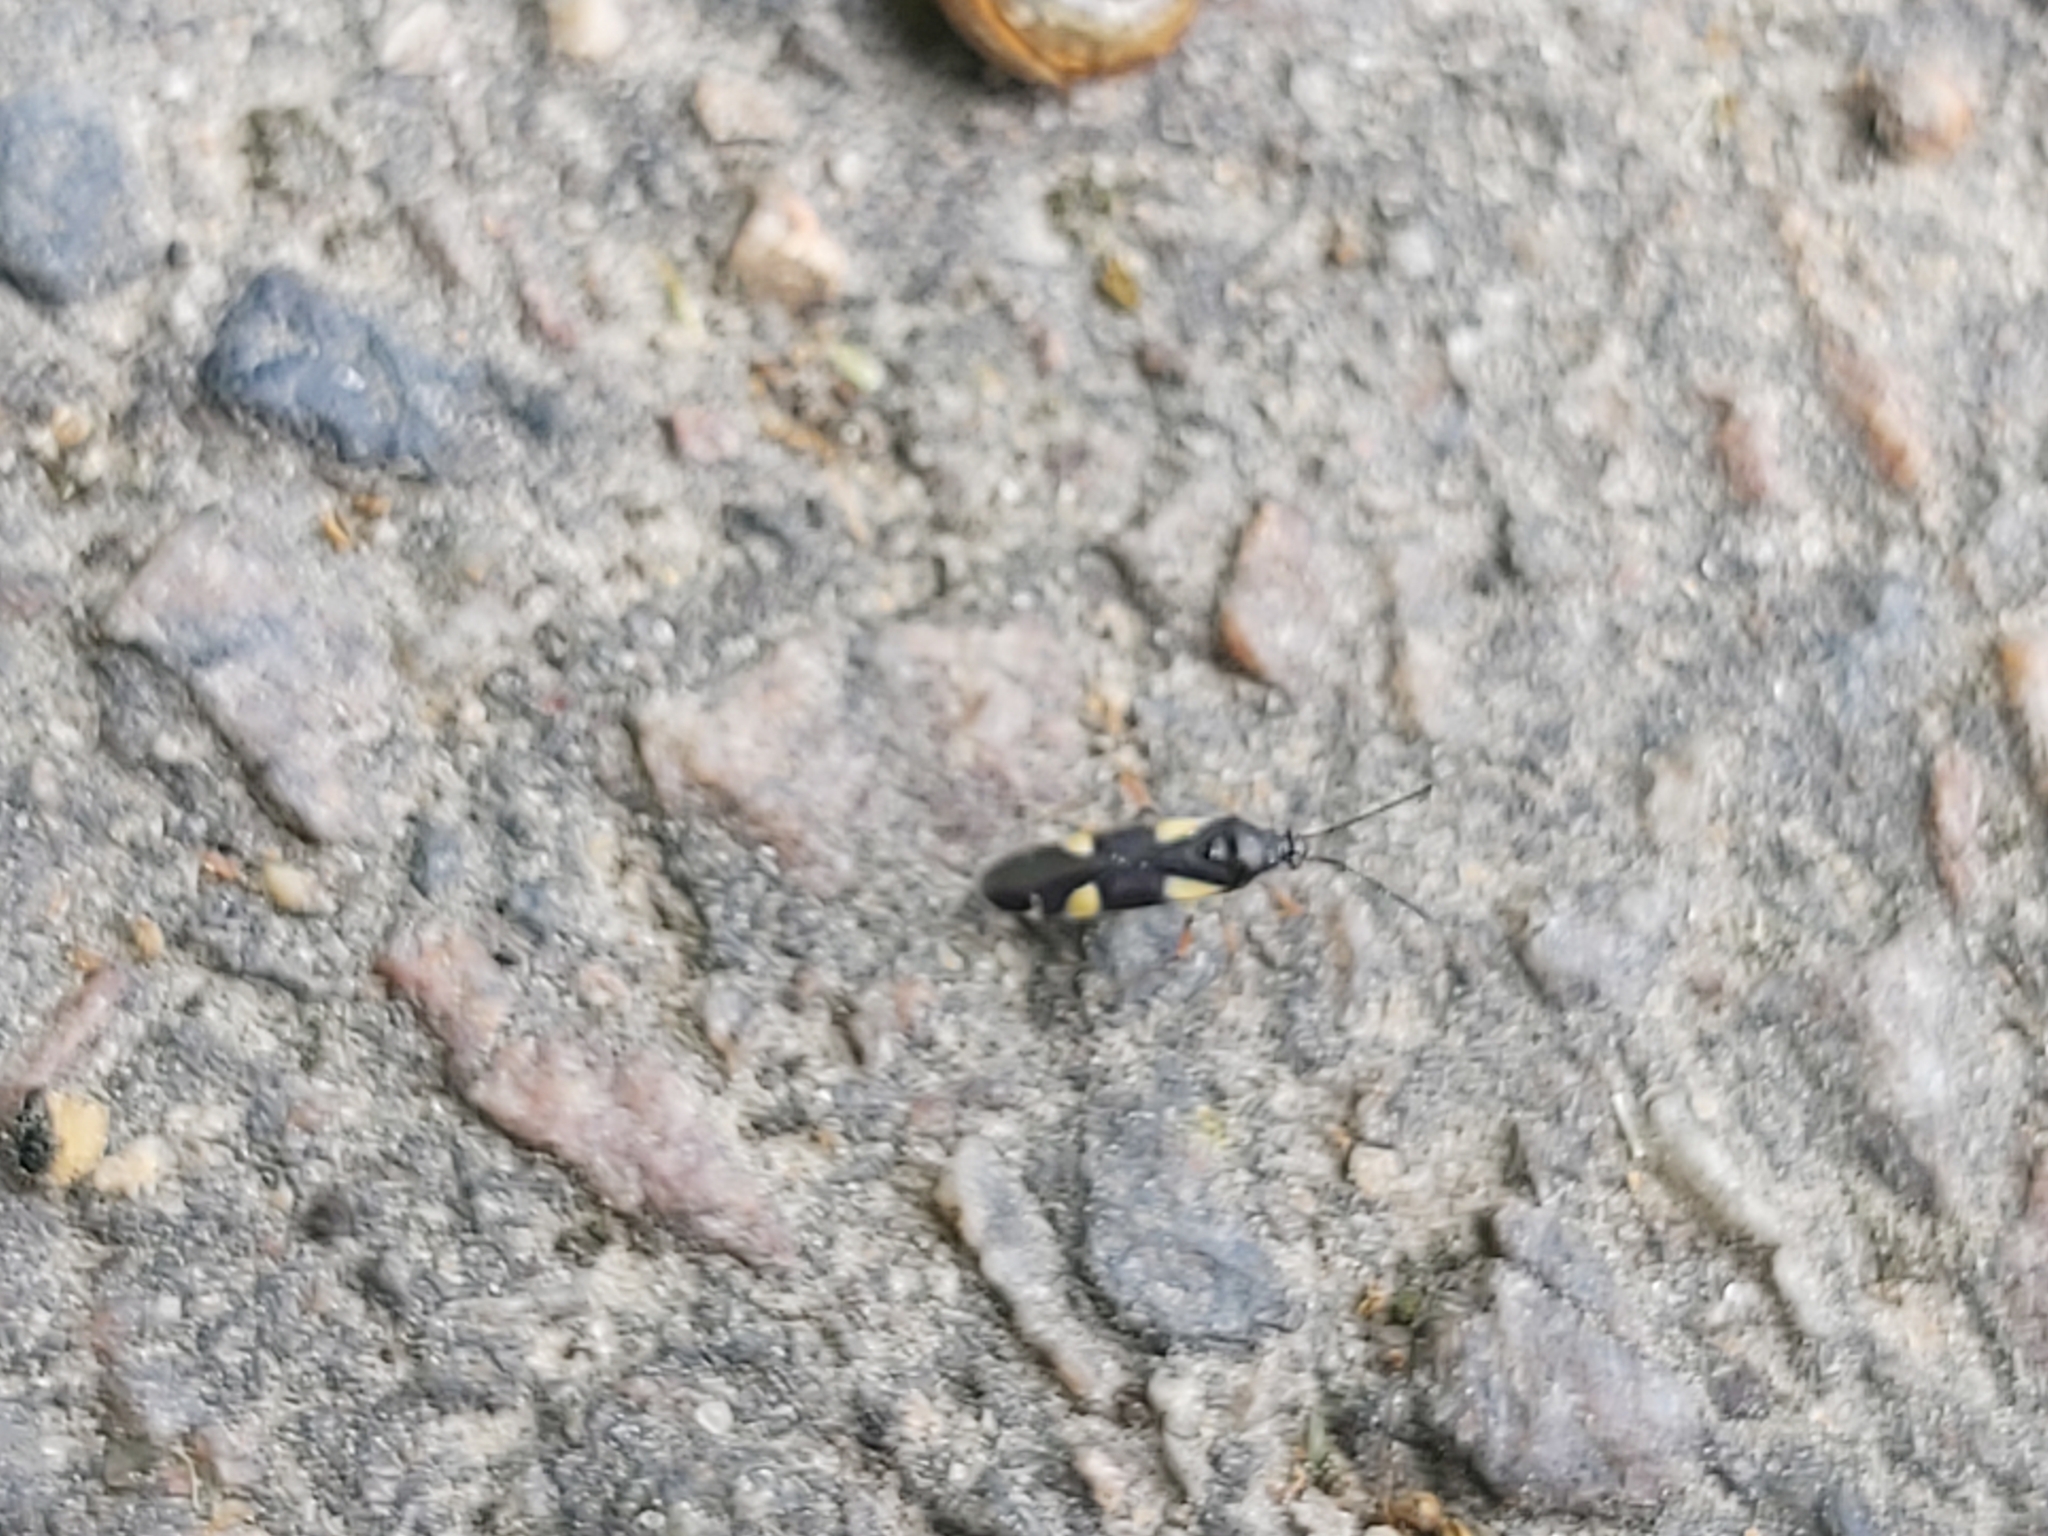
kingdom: Animalia
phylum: Arthropoda
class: Insecta
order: Hemiptera
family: Miridae
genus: Dryophilocoris
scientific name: Dryophilocoris flavoquadrimaculatus
